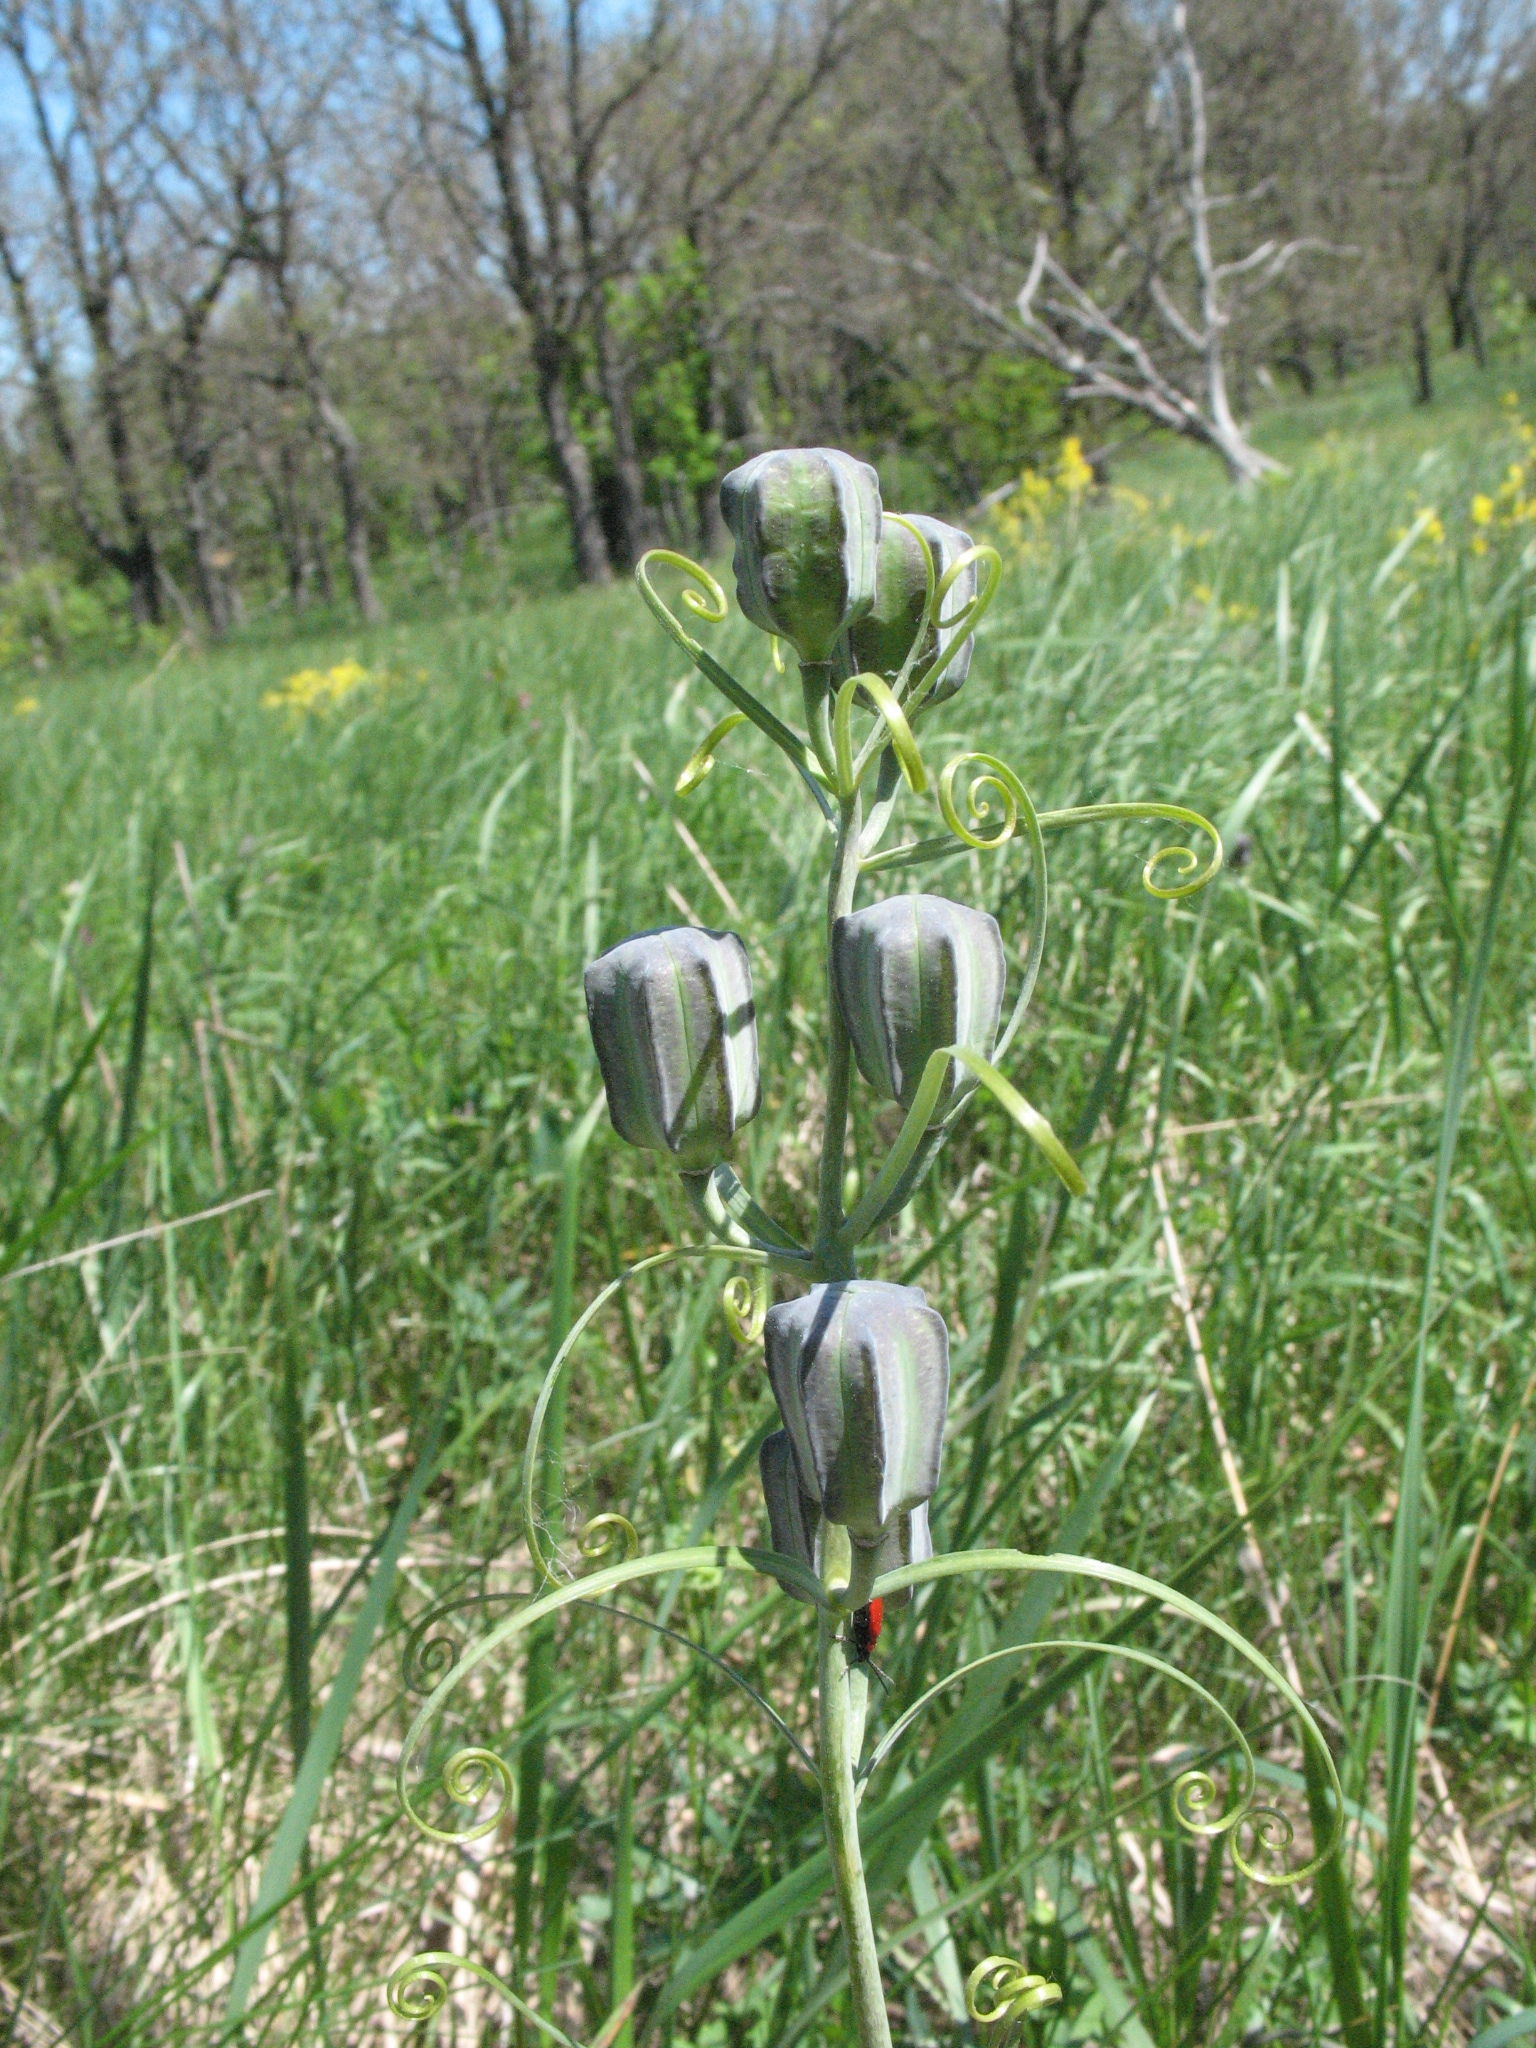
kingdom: Plantae
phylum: Tracheophyta
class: Liliopsida
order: Liliales
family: Liliaceae
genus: Fritillaria
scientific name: Fritillaria ruthenica
